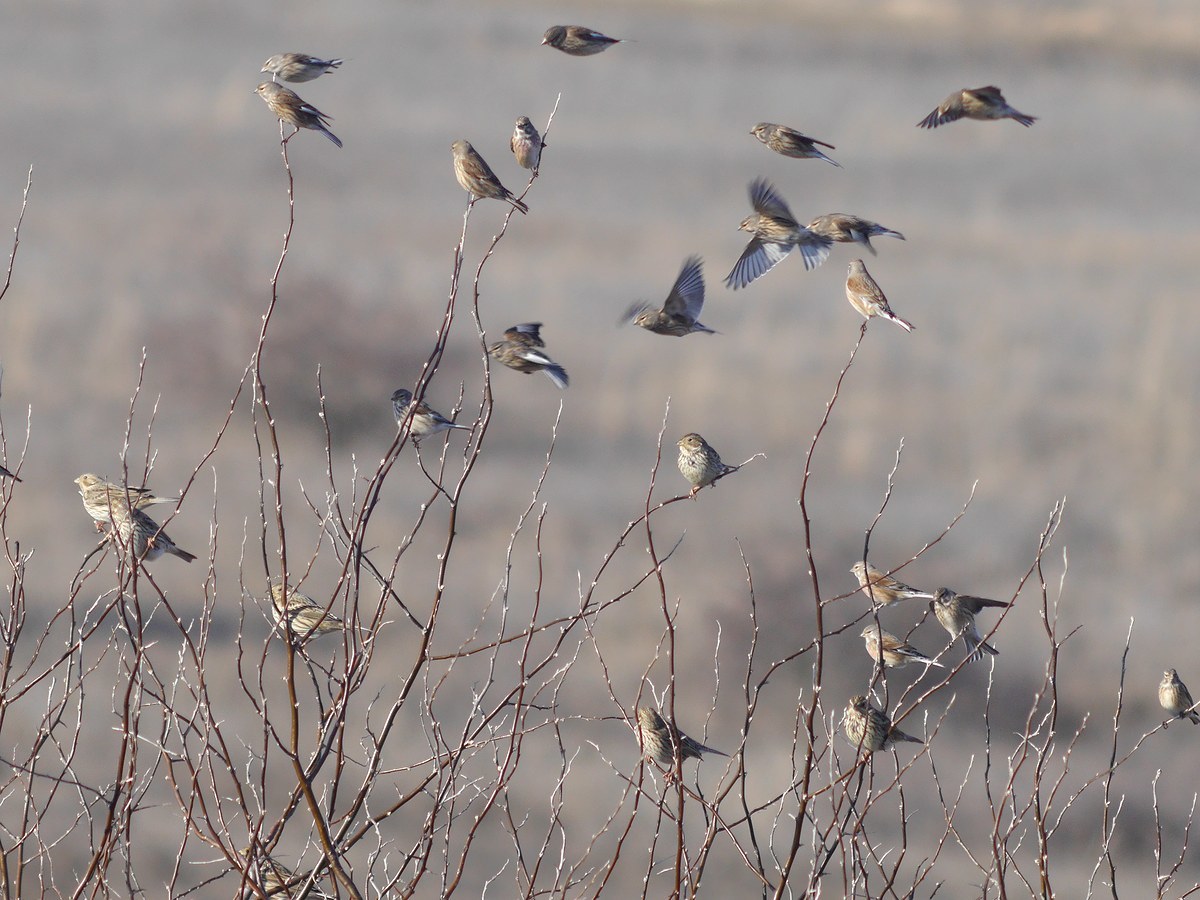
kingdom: Animalia
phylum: Chordata
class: Aves
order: Passeriformes
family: Fringillidae
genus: Linaria
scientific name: Linaria cannabina
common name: Common linnet
